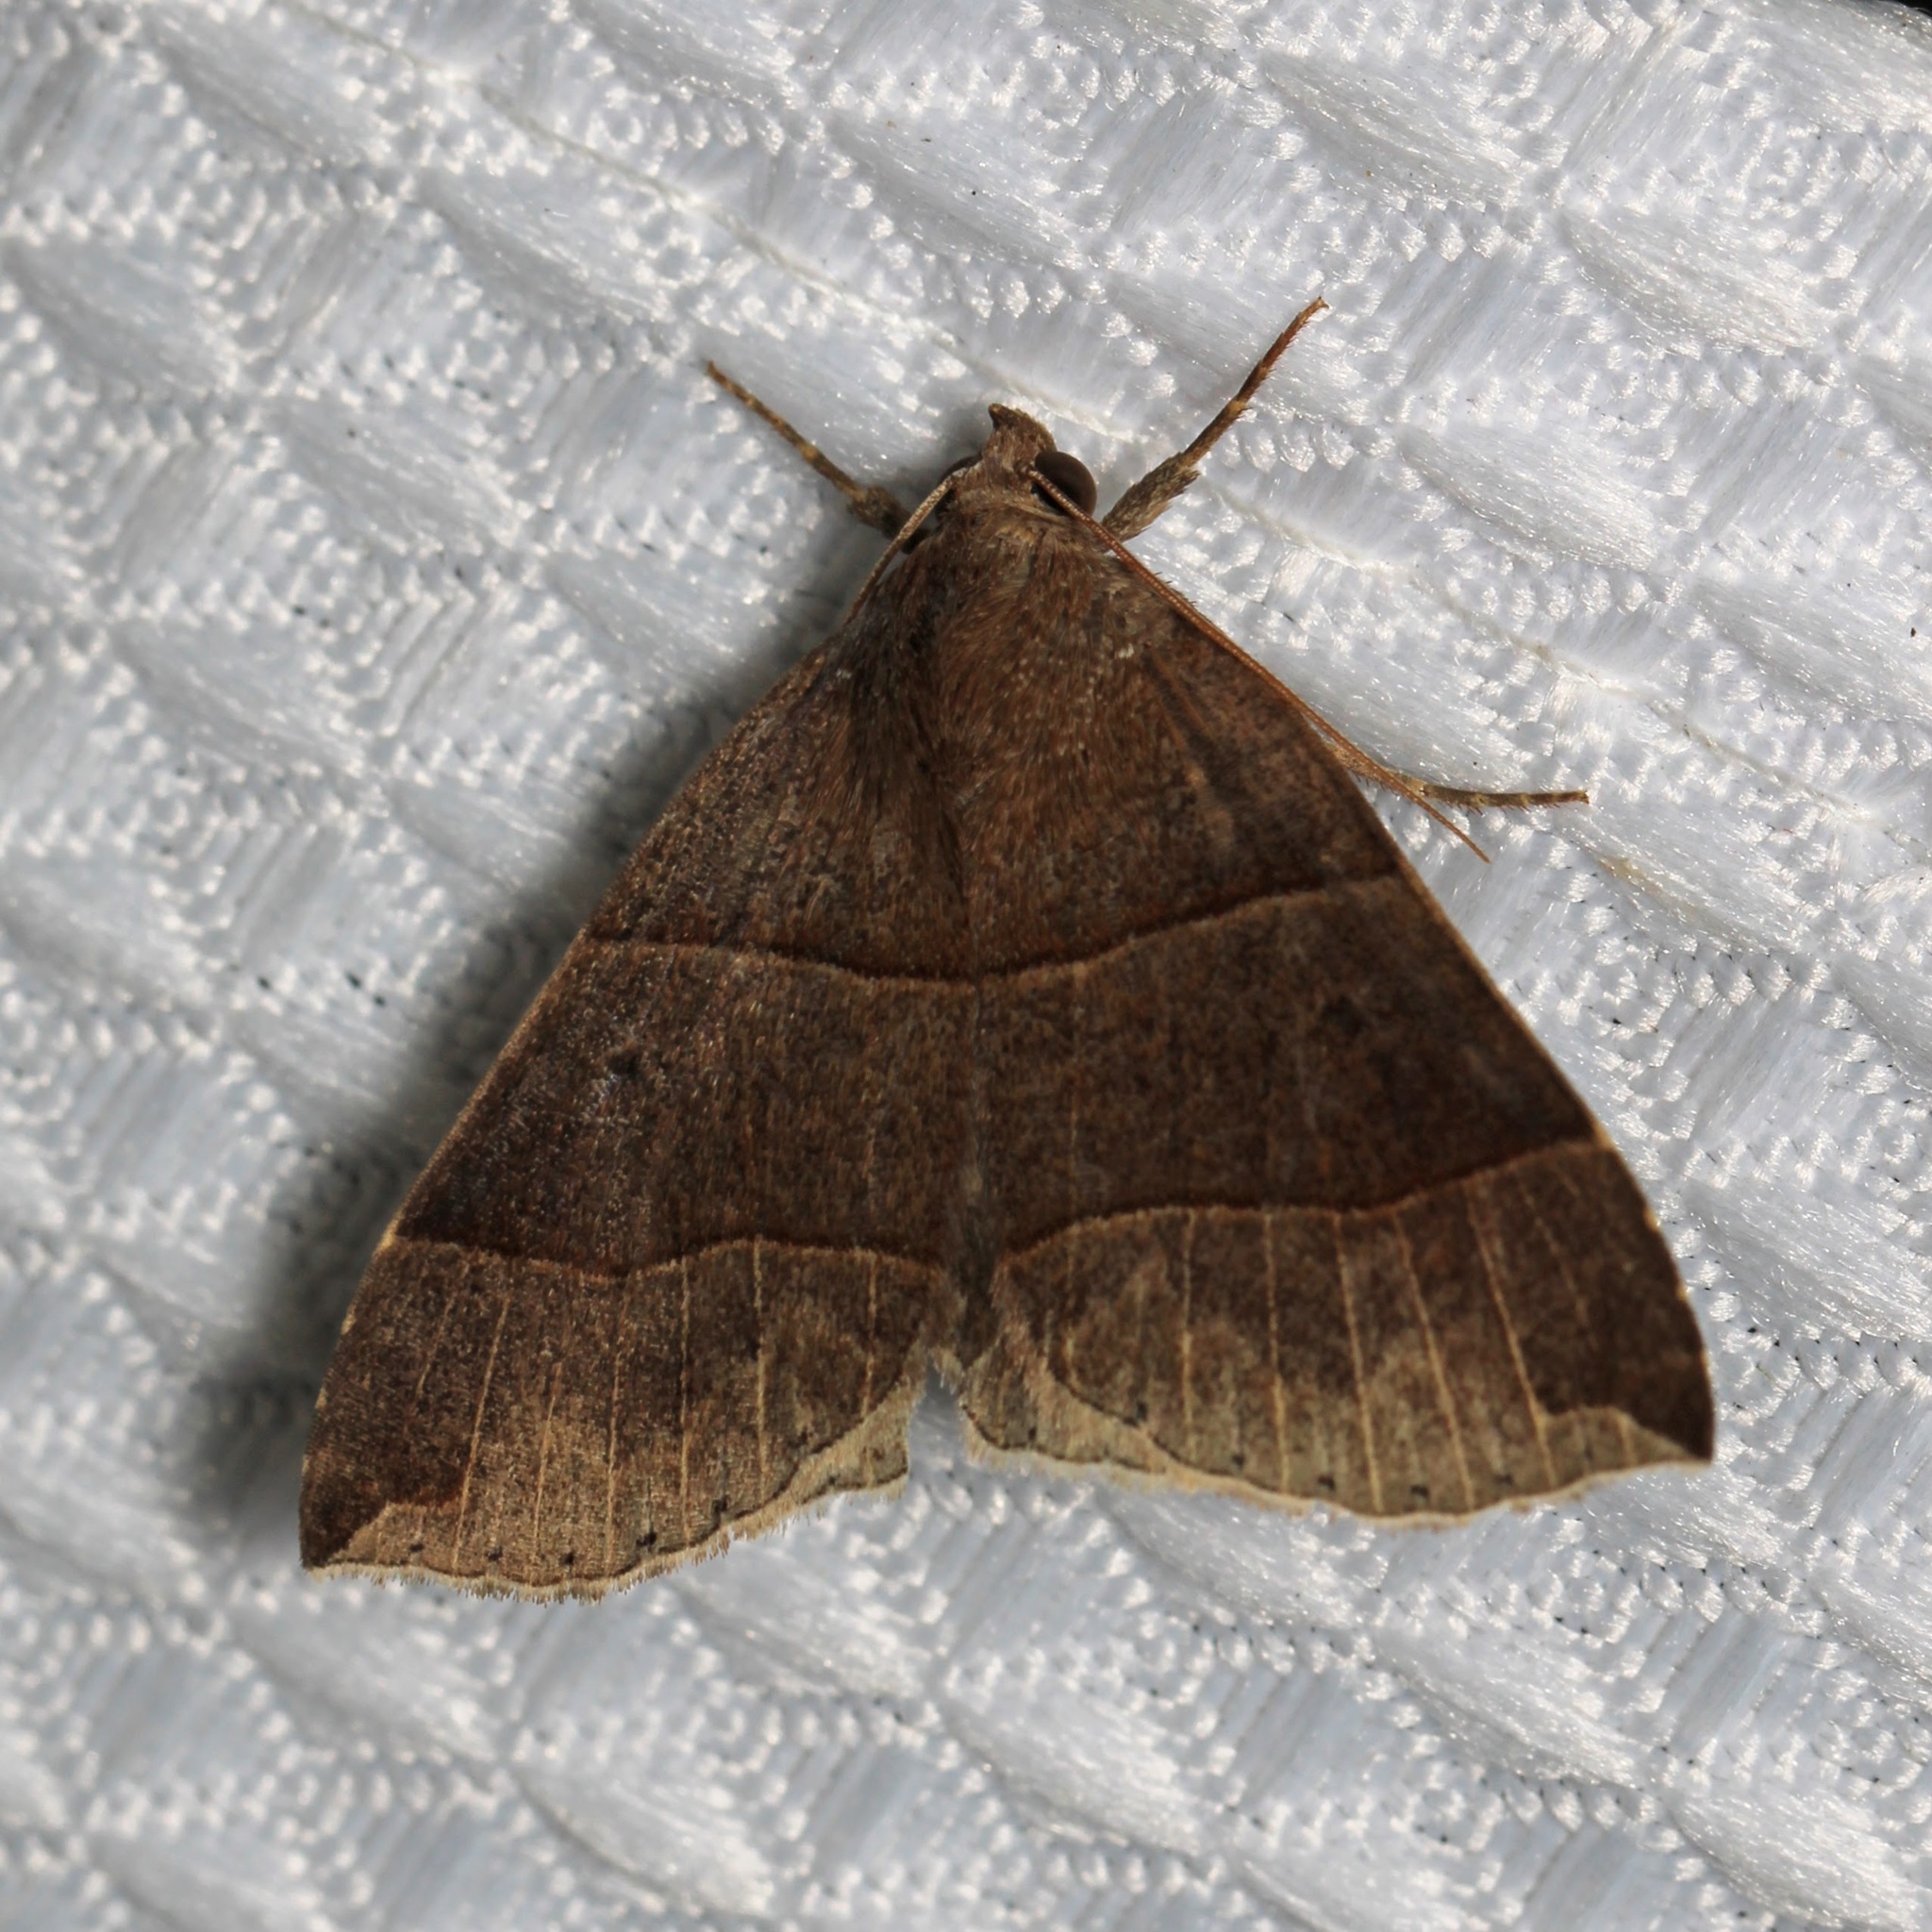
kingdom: Animalia
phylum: Arthropoda
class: Insecta
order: Lepidoptera
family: Erebidae
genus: Parallelia
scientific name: Parallelia bistriaris
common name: Maple looper moth
